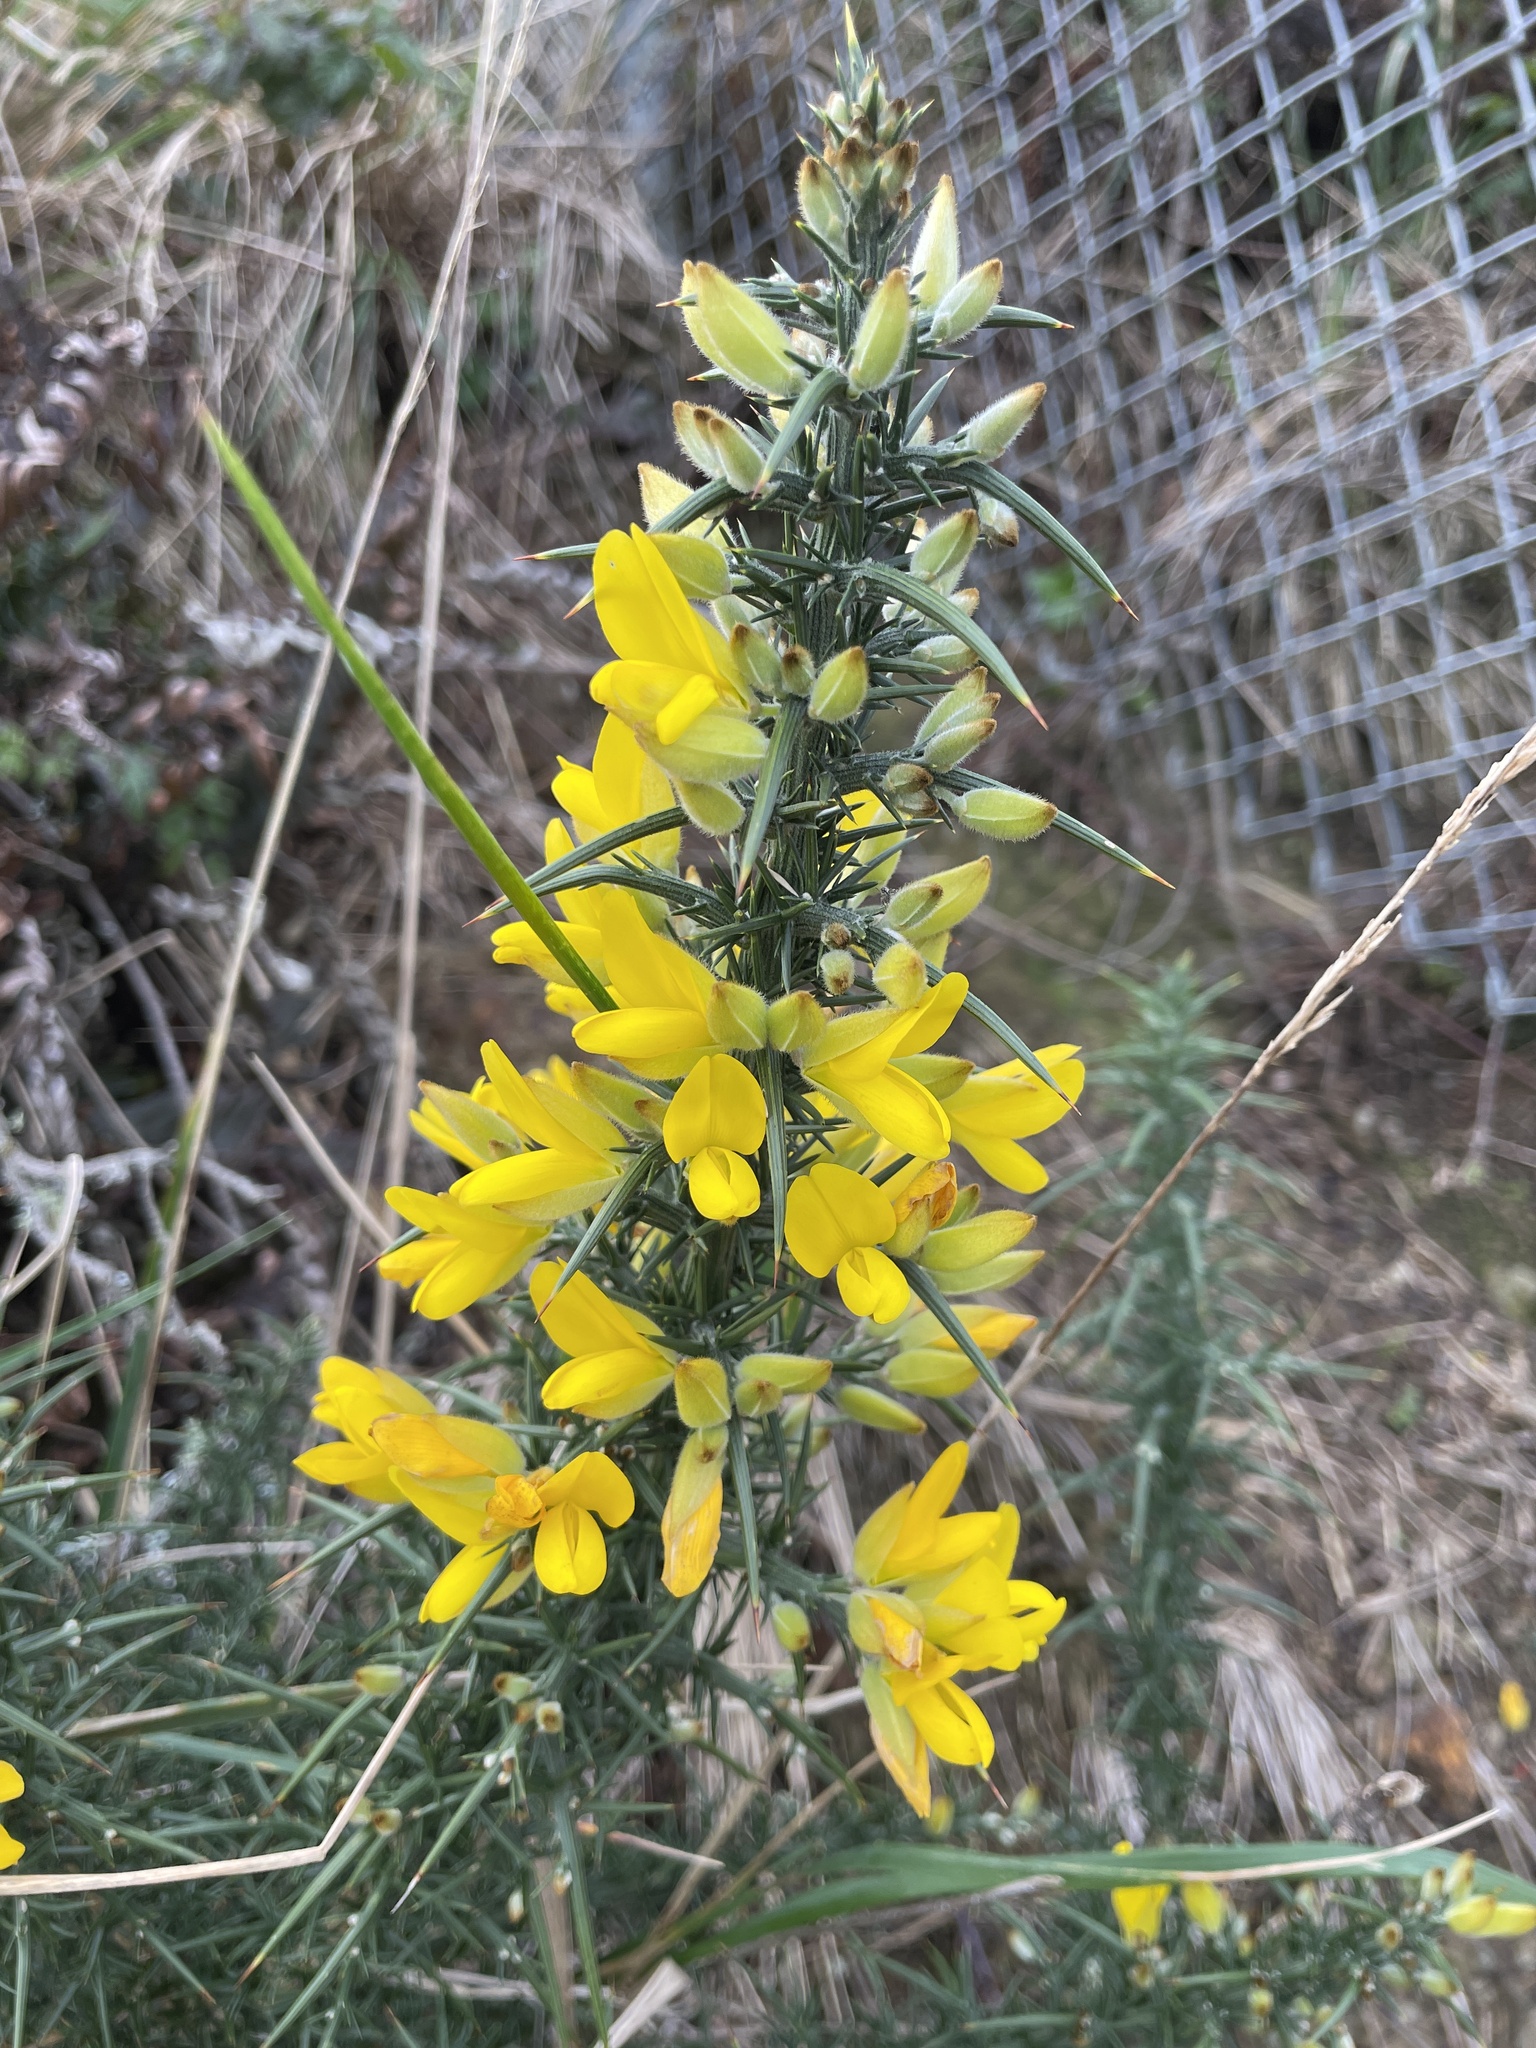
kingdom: Plantae
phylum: Tracheophyta
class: Magnoliopsida
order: Fabales
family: Fabaceae
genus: Ulex
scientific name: Ulex europaeus
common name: Common gorse
